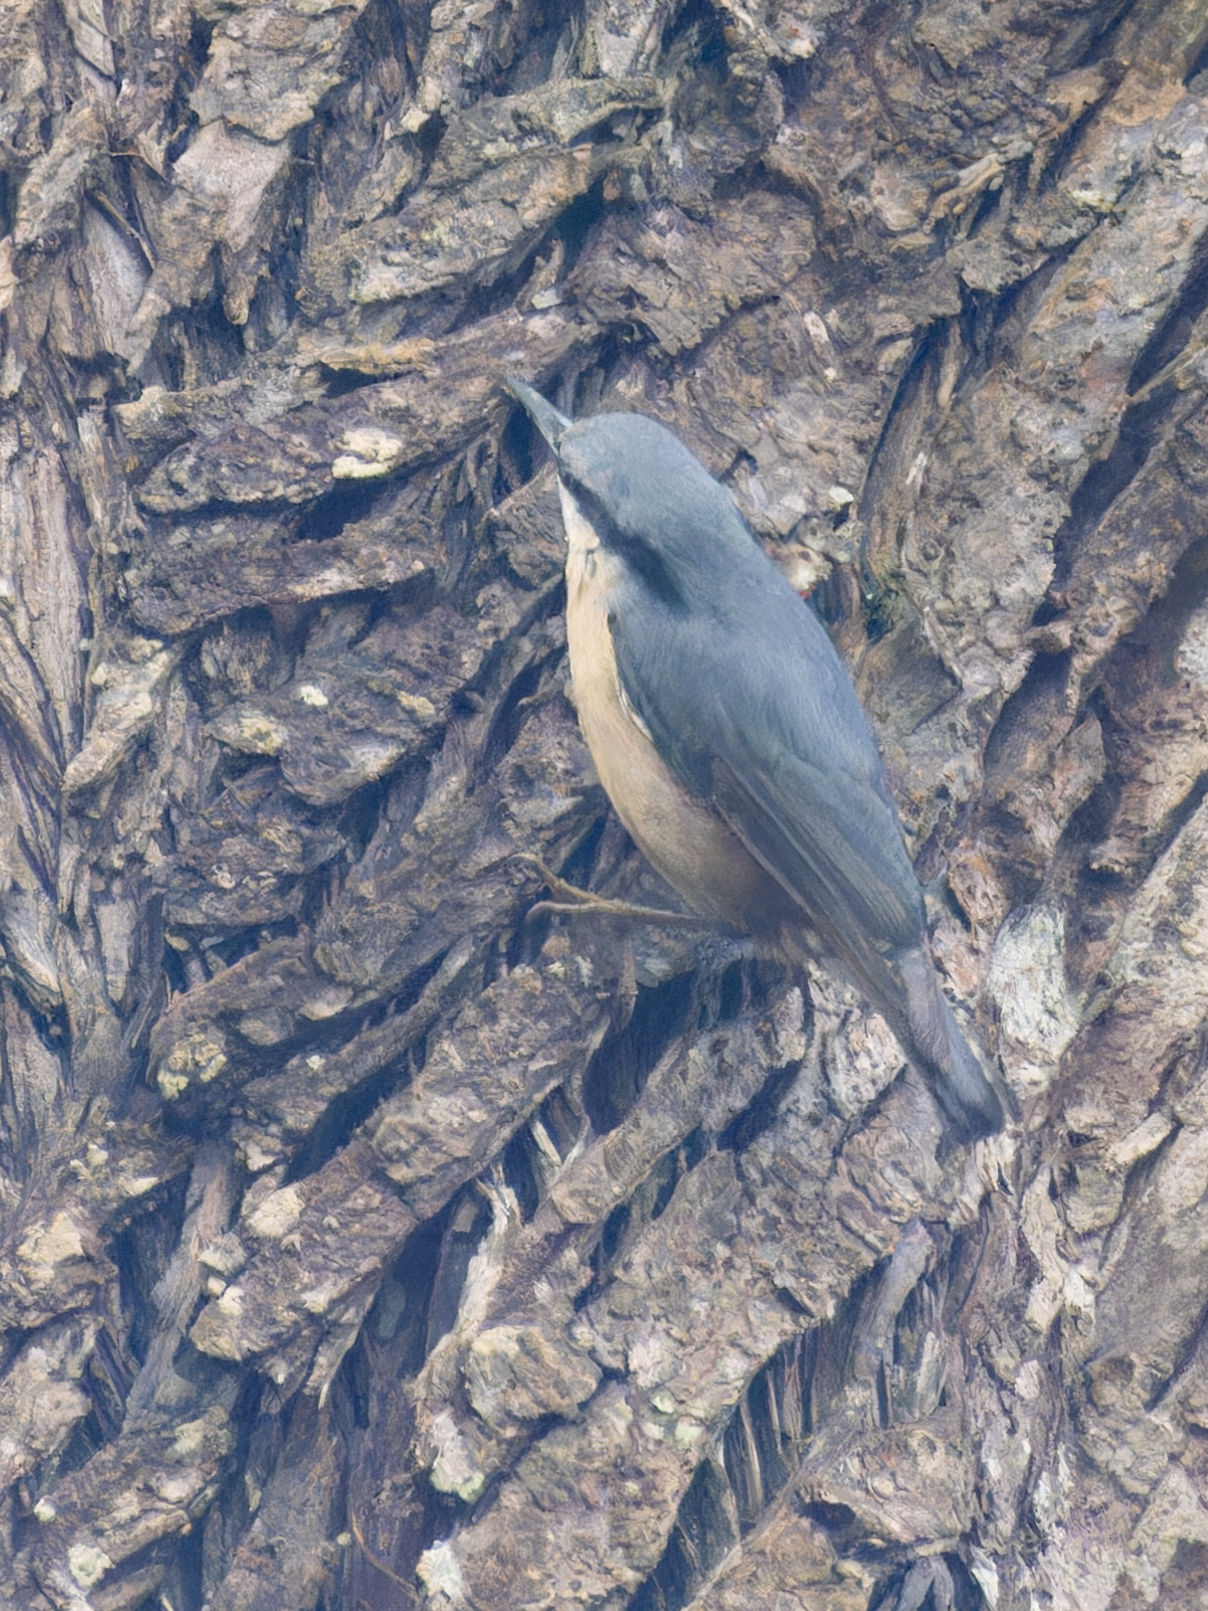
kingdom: Animalia
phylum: Chordata
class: Aves
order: Passeriformes
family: Sittidae
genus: Sitta
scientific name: Sitta europaea
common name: Eurasian nuthatch
